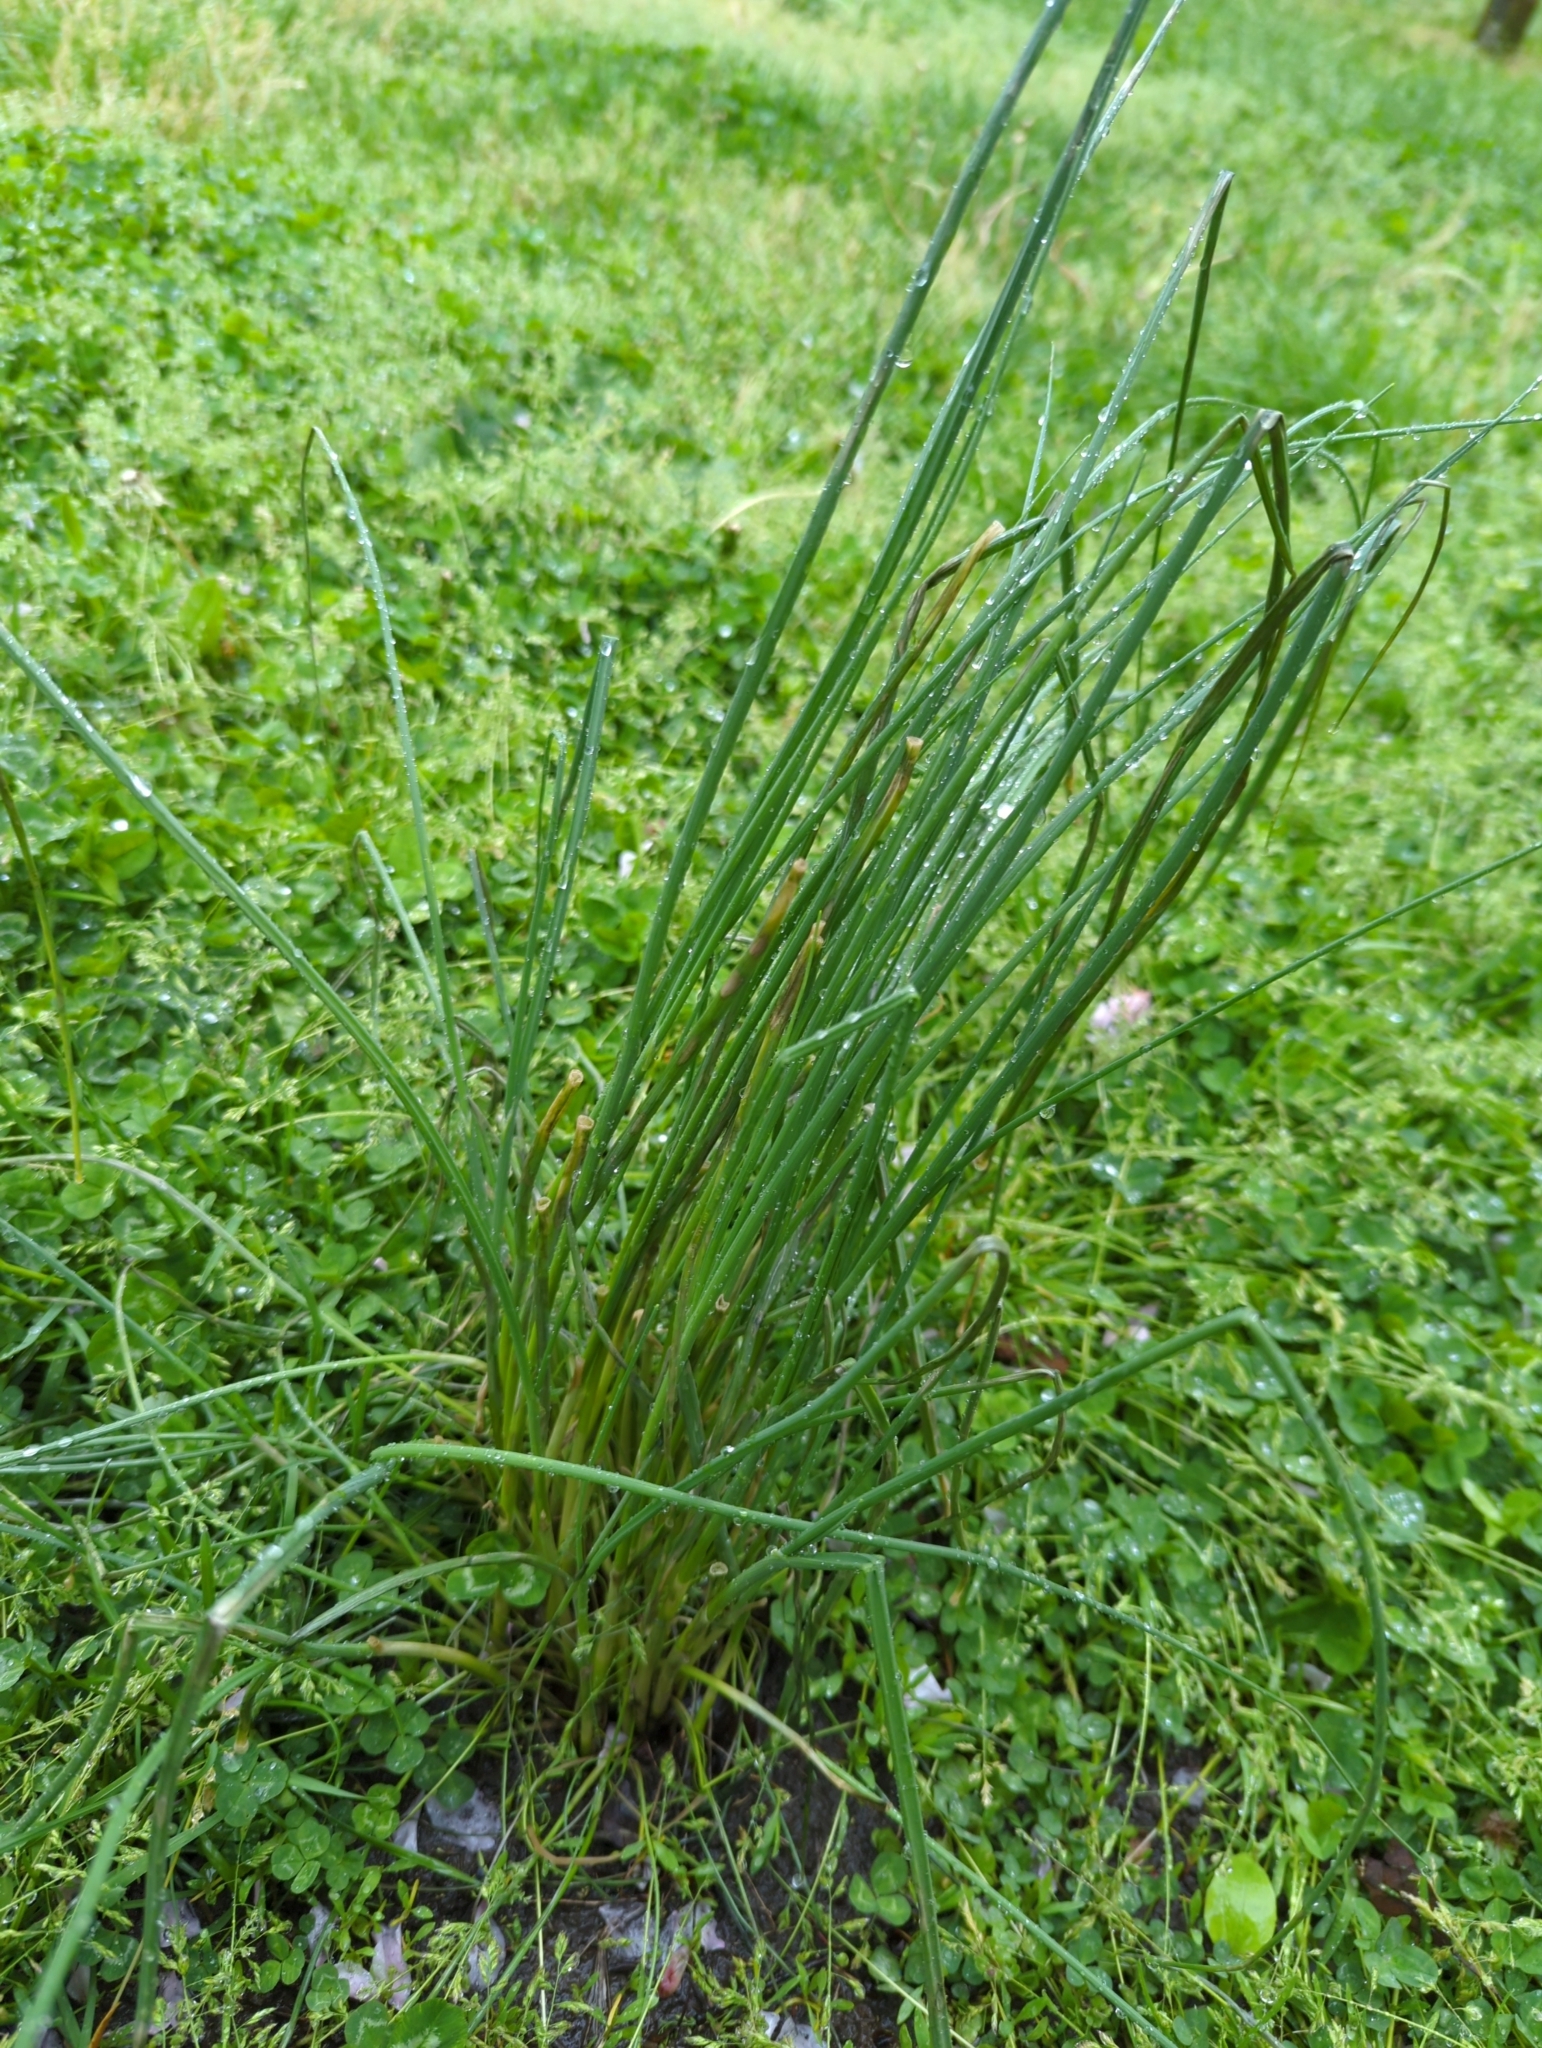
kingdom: Plantae
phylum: Tracheophyta
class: Liliopsida
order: Asparagales
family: Amaryllidaceae
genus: Allium
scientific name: Allium vineale
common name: Crow garlic
